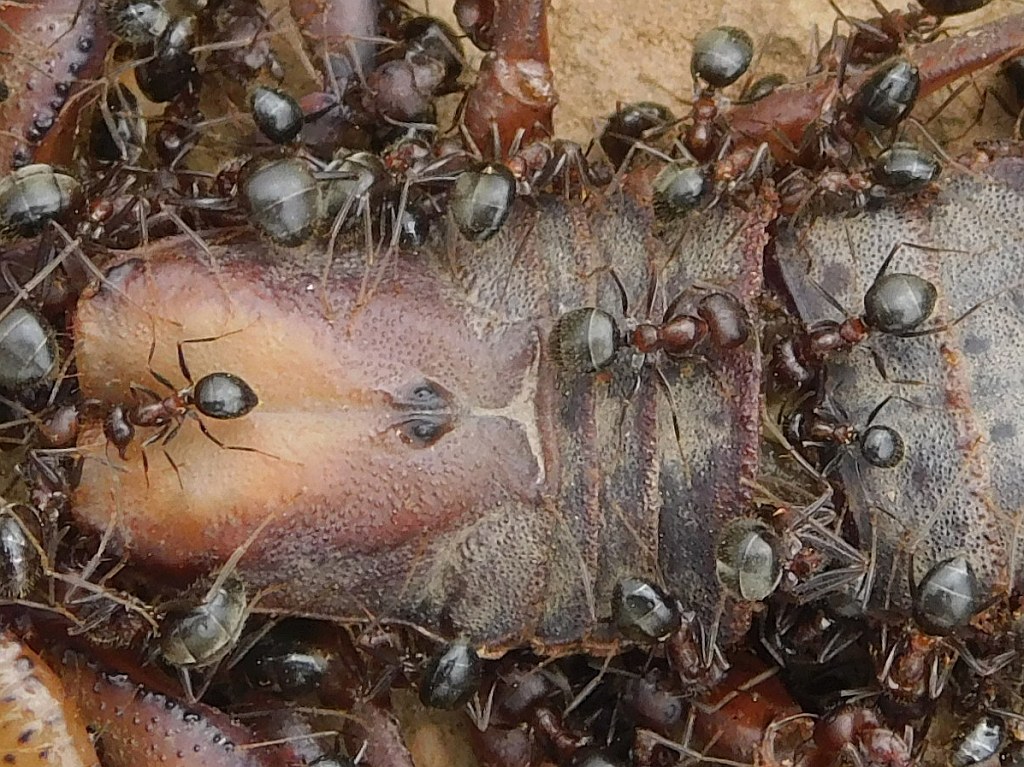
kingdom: Animalia
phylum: Arthropoda
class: Insecta
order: Hymenoptera
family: Formicidae
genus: Anoplolepis
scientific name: Anoplolepis steingroeveri
